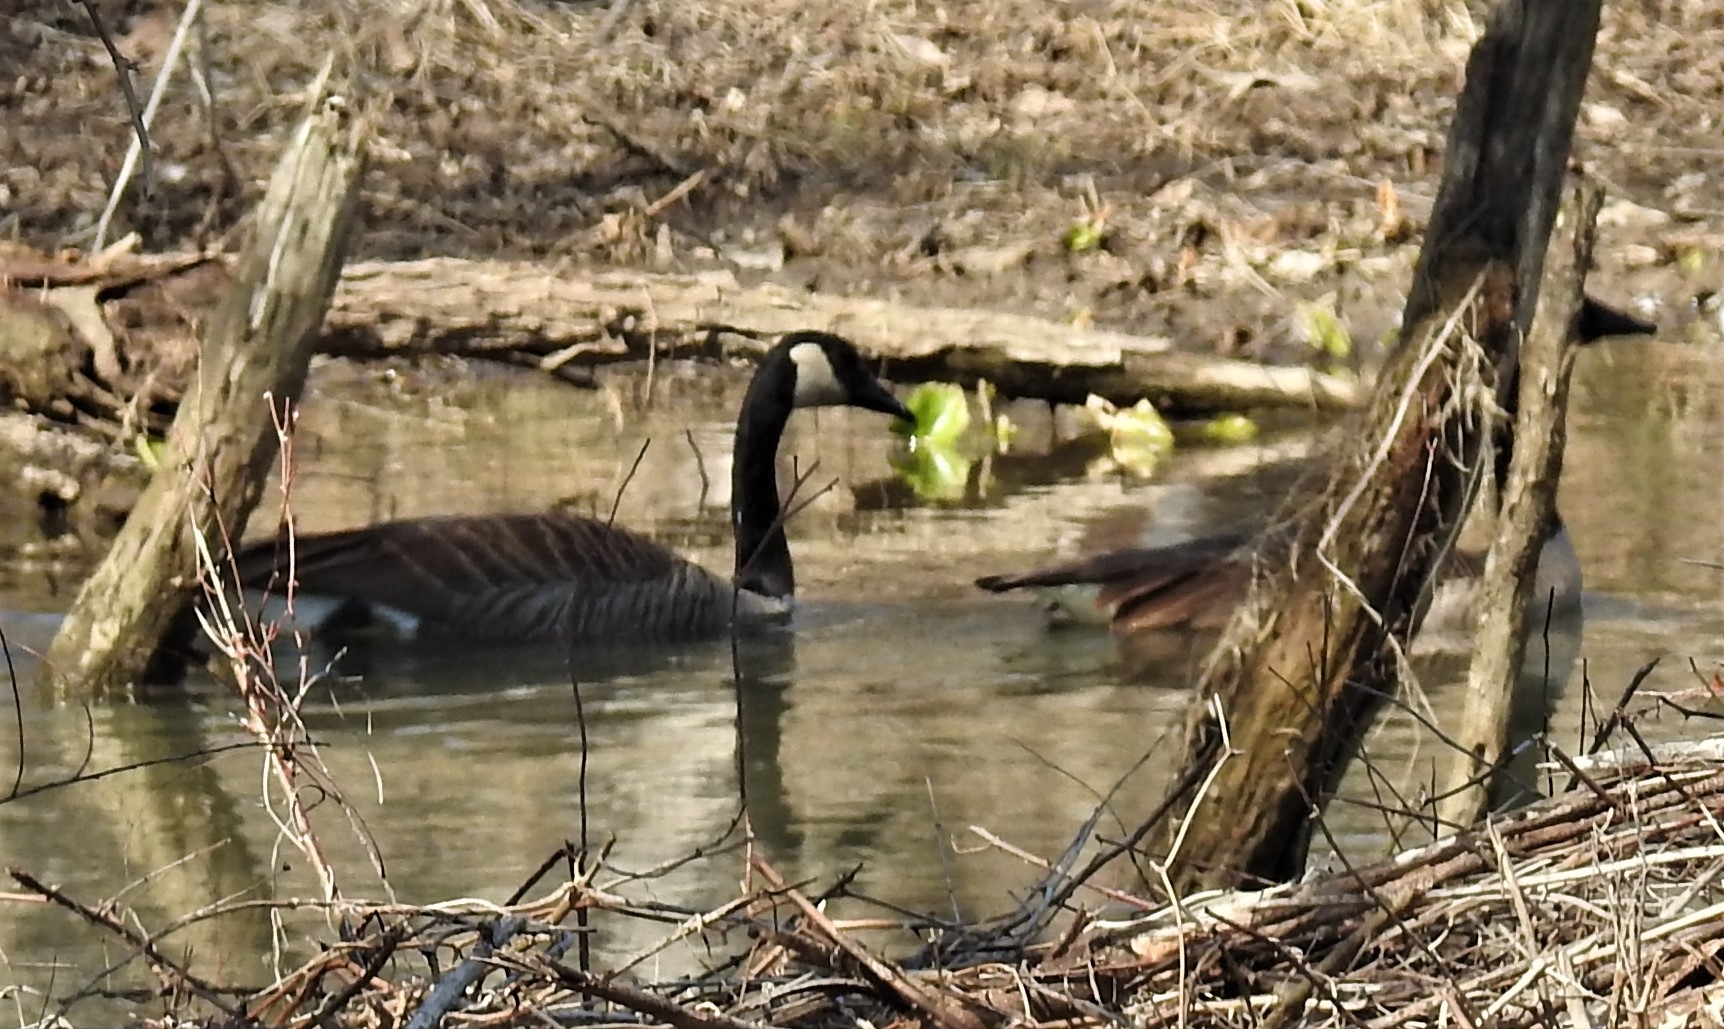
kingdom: Animalia
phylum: Chordata
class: Aves
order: Anseriformes
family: Anatidae
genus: Branta
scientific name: Branta canadensis
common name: Canada goose
